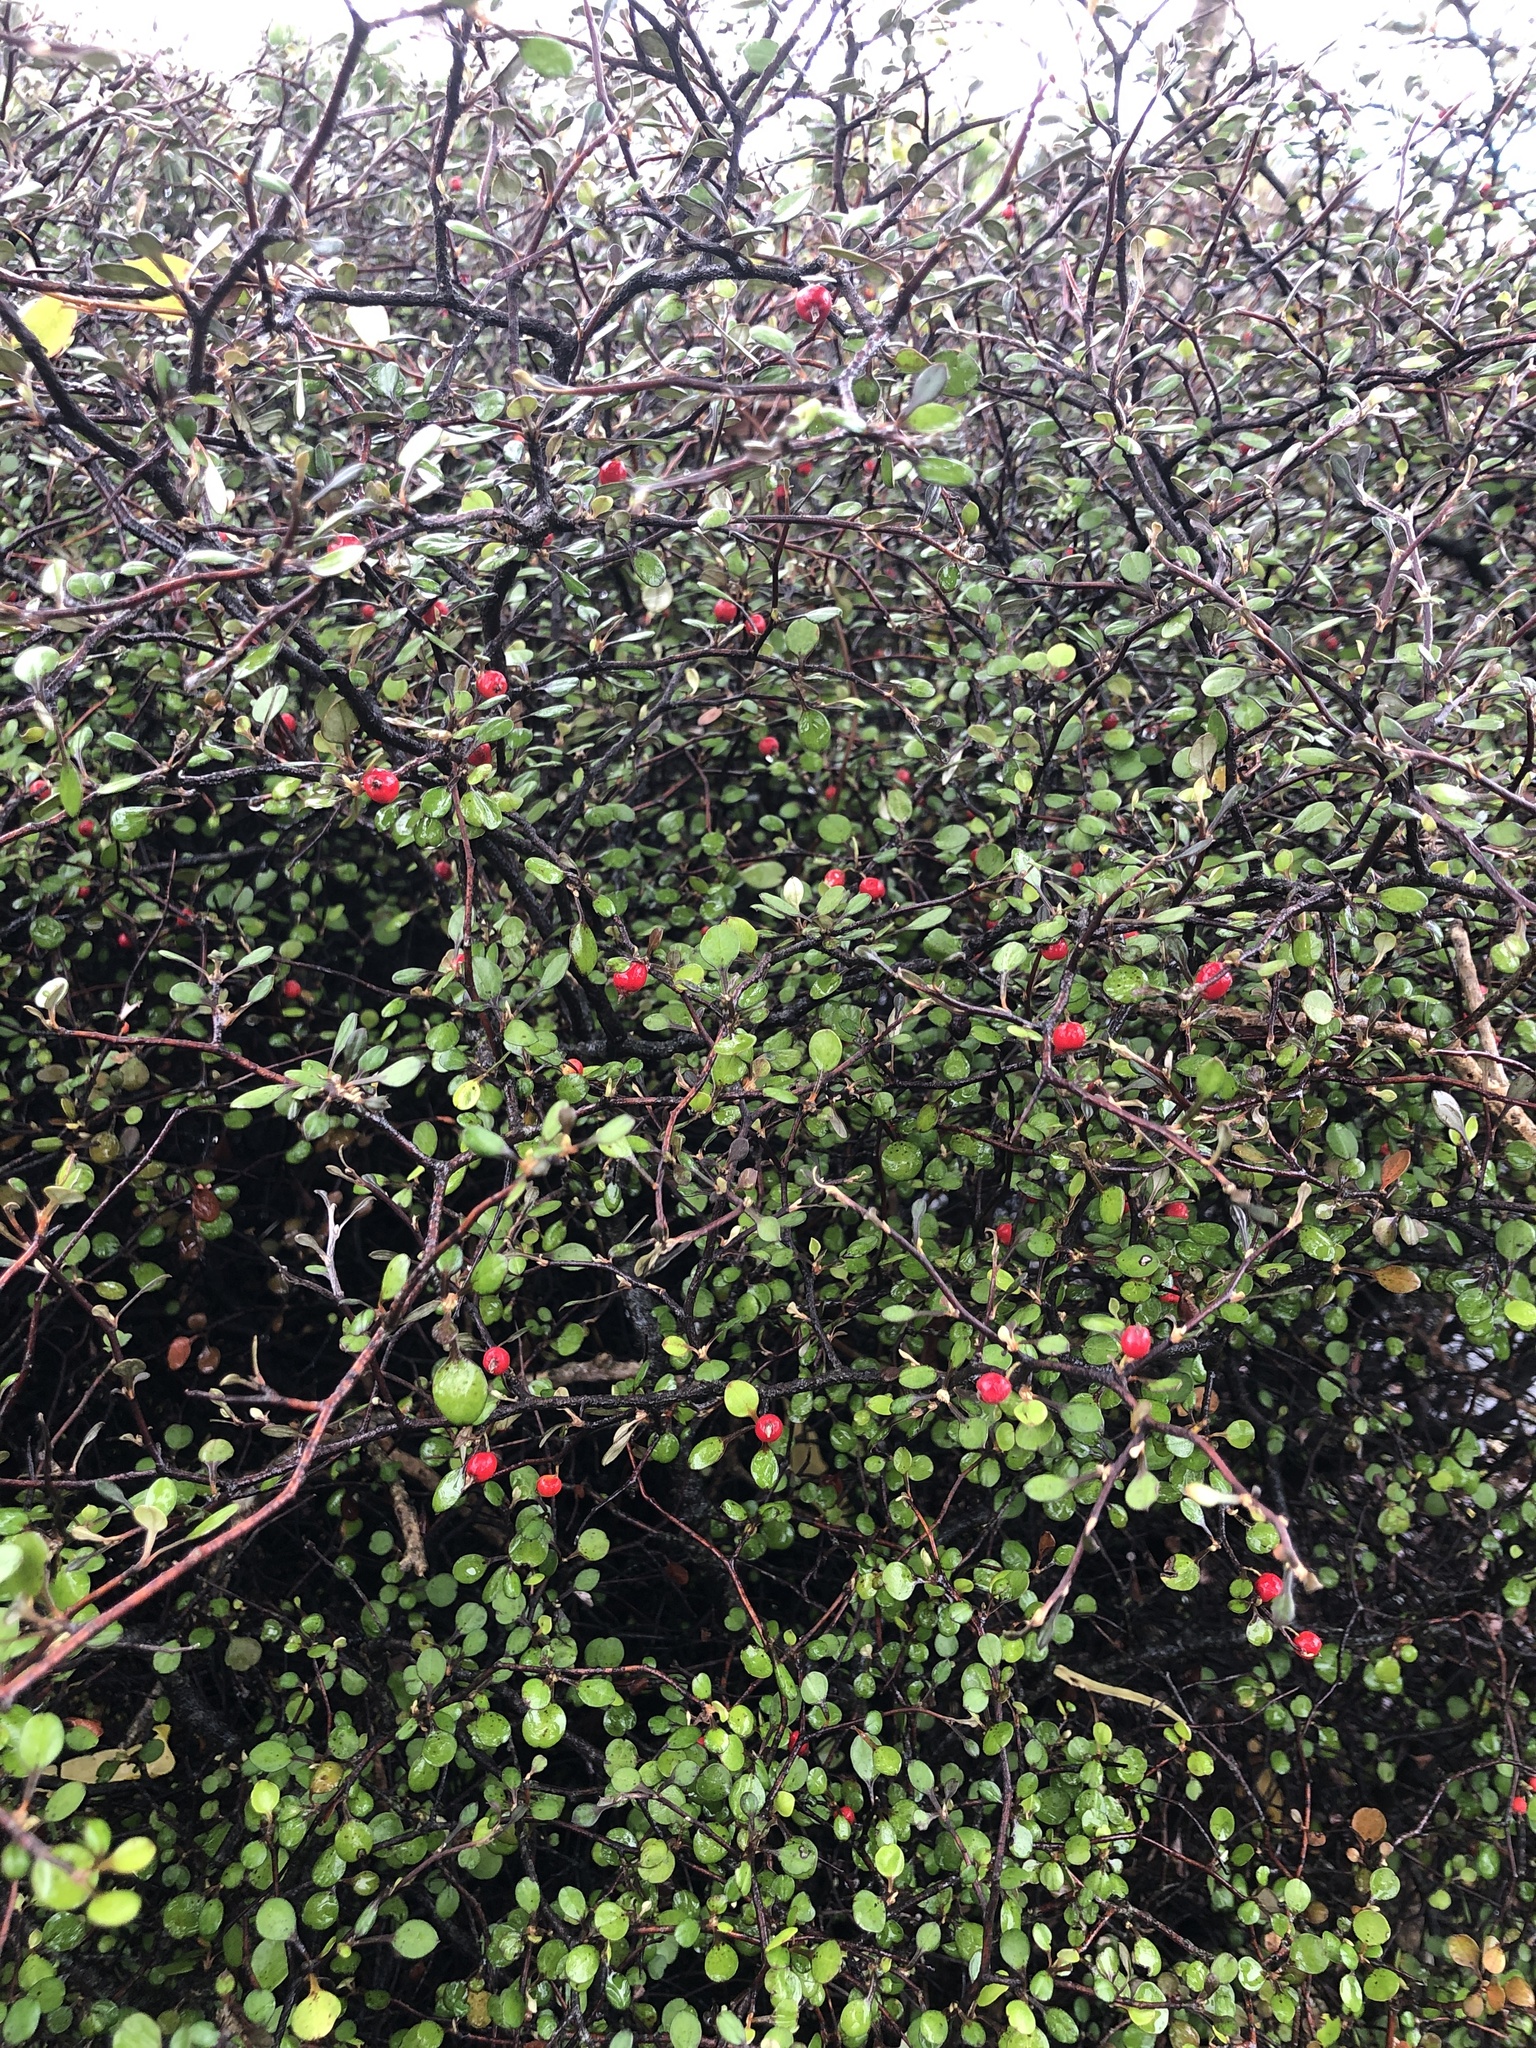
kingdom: Plantae
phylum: Tracheophyta
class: Magnoliopsida
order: Asterales
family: Argophyllaceae
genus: Corokia
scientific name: Corokia cotoneaster
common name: Wire nettingbush
